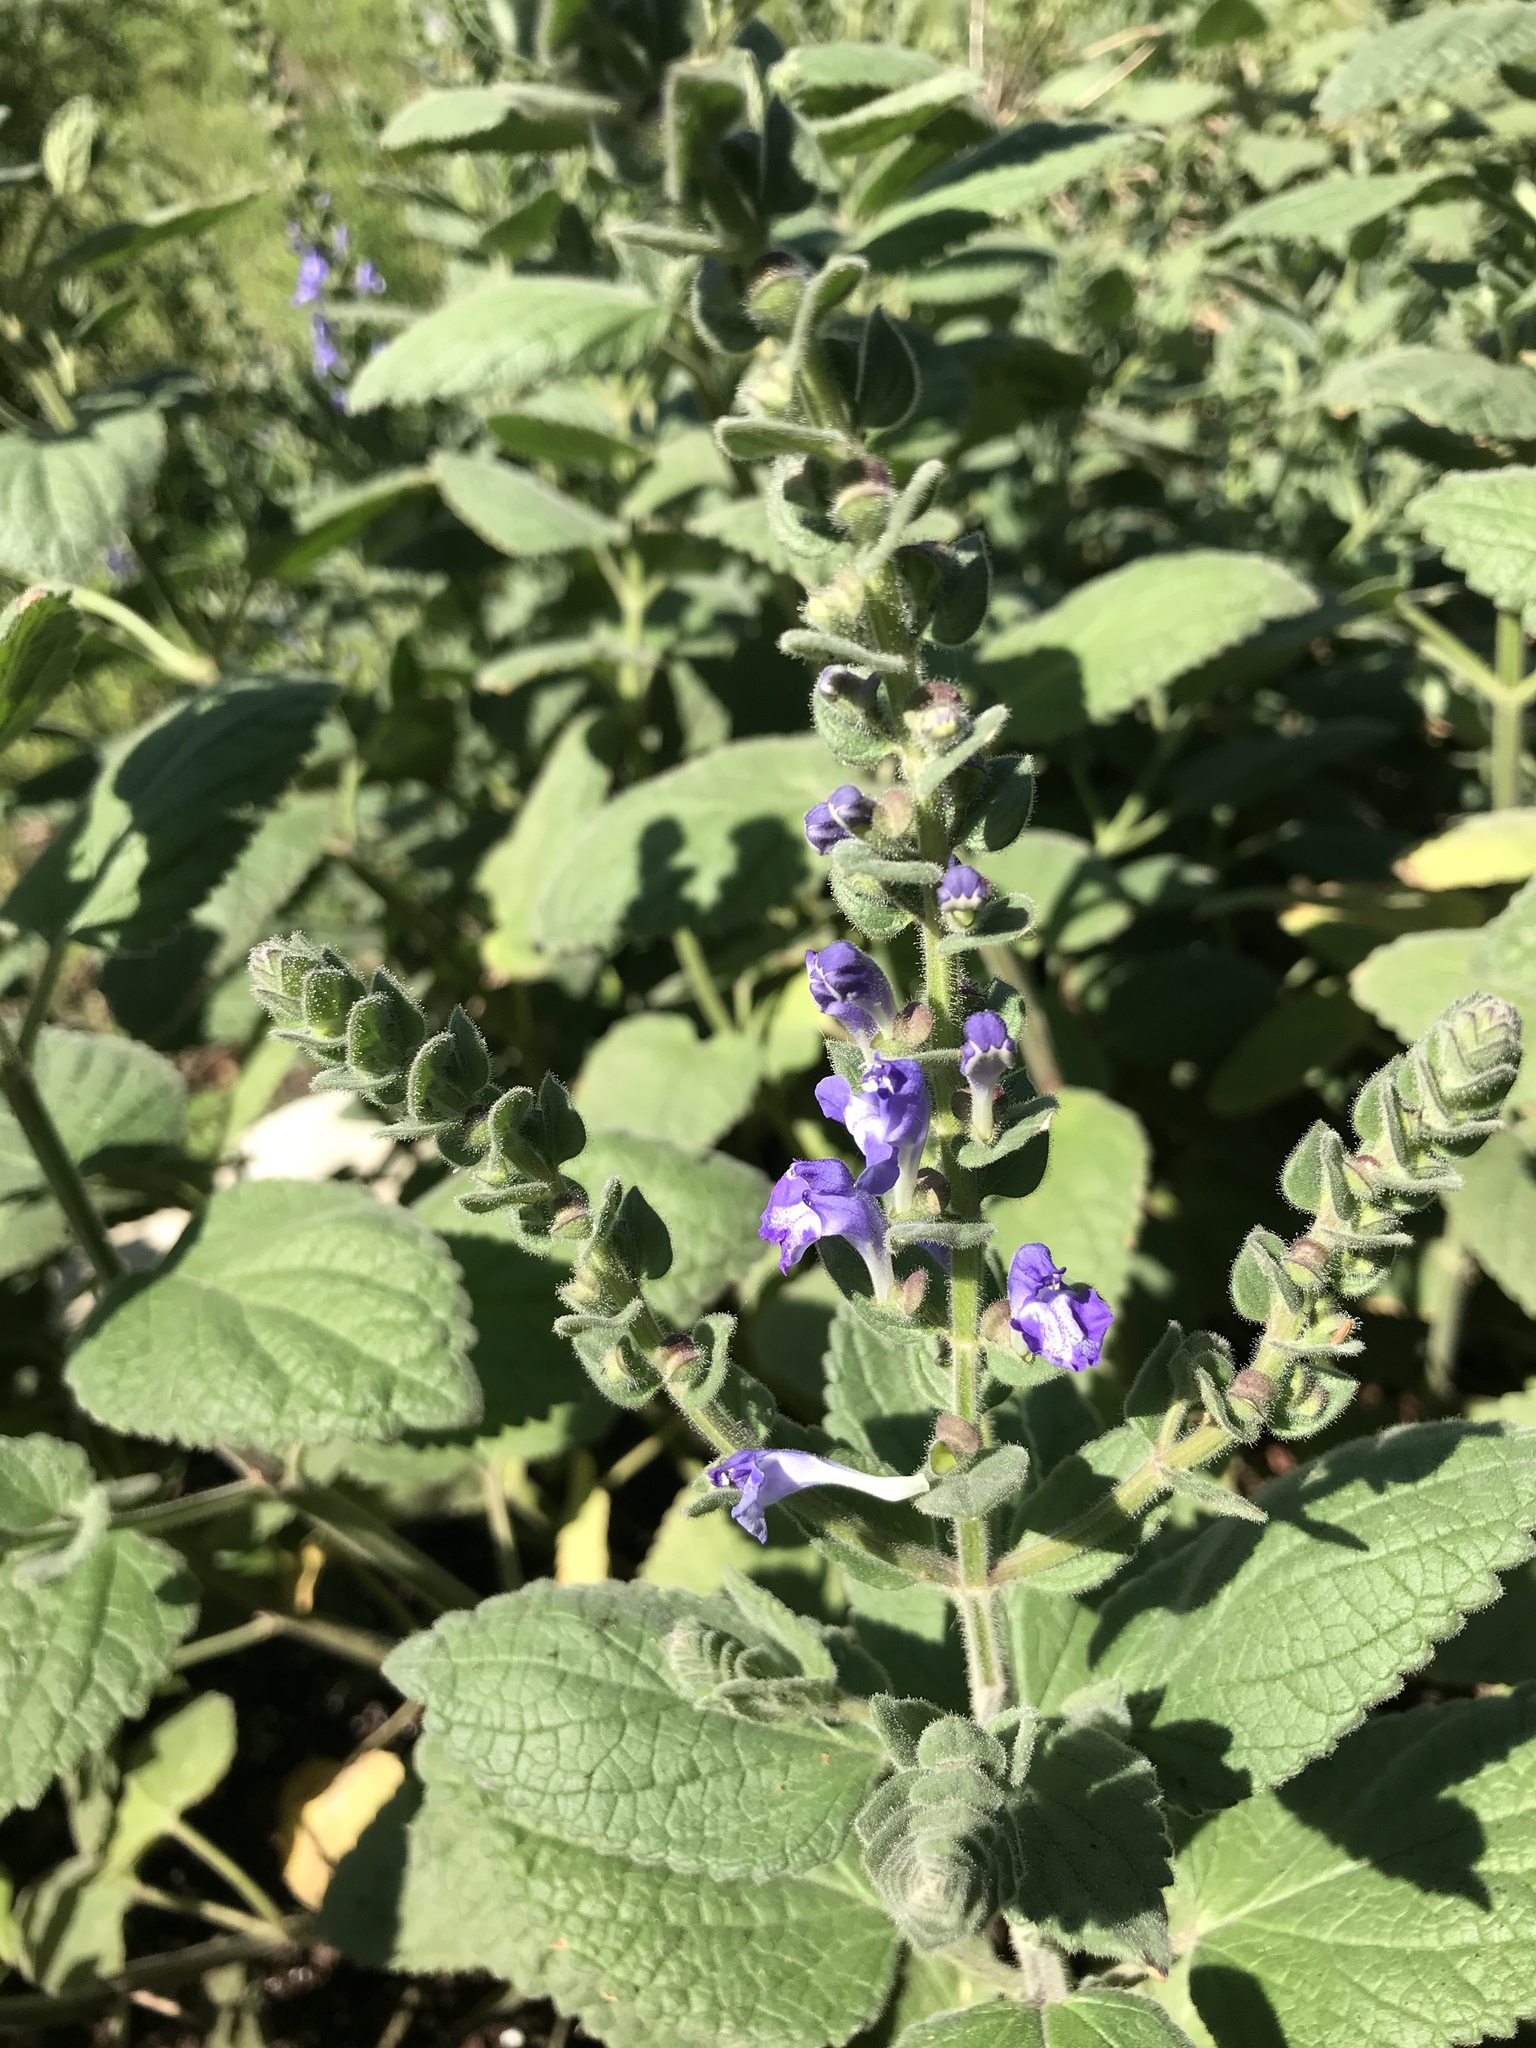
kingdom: Plantae
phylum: Tracheophyta
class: Magnoliopsida
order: Lamiales
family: Lamiaceae
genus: Scutellaria
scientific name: Scutellaria ovata
